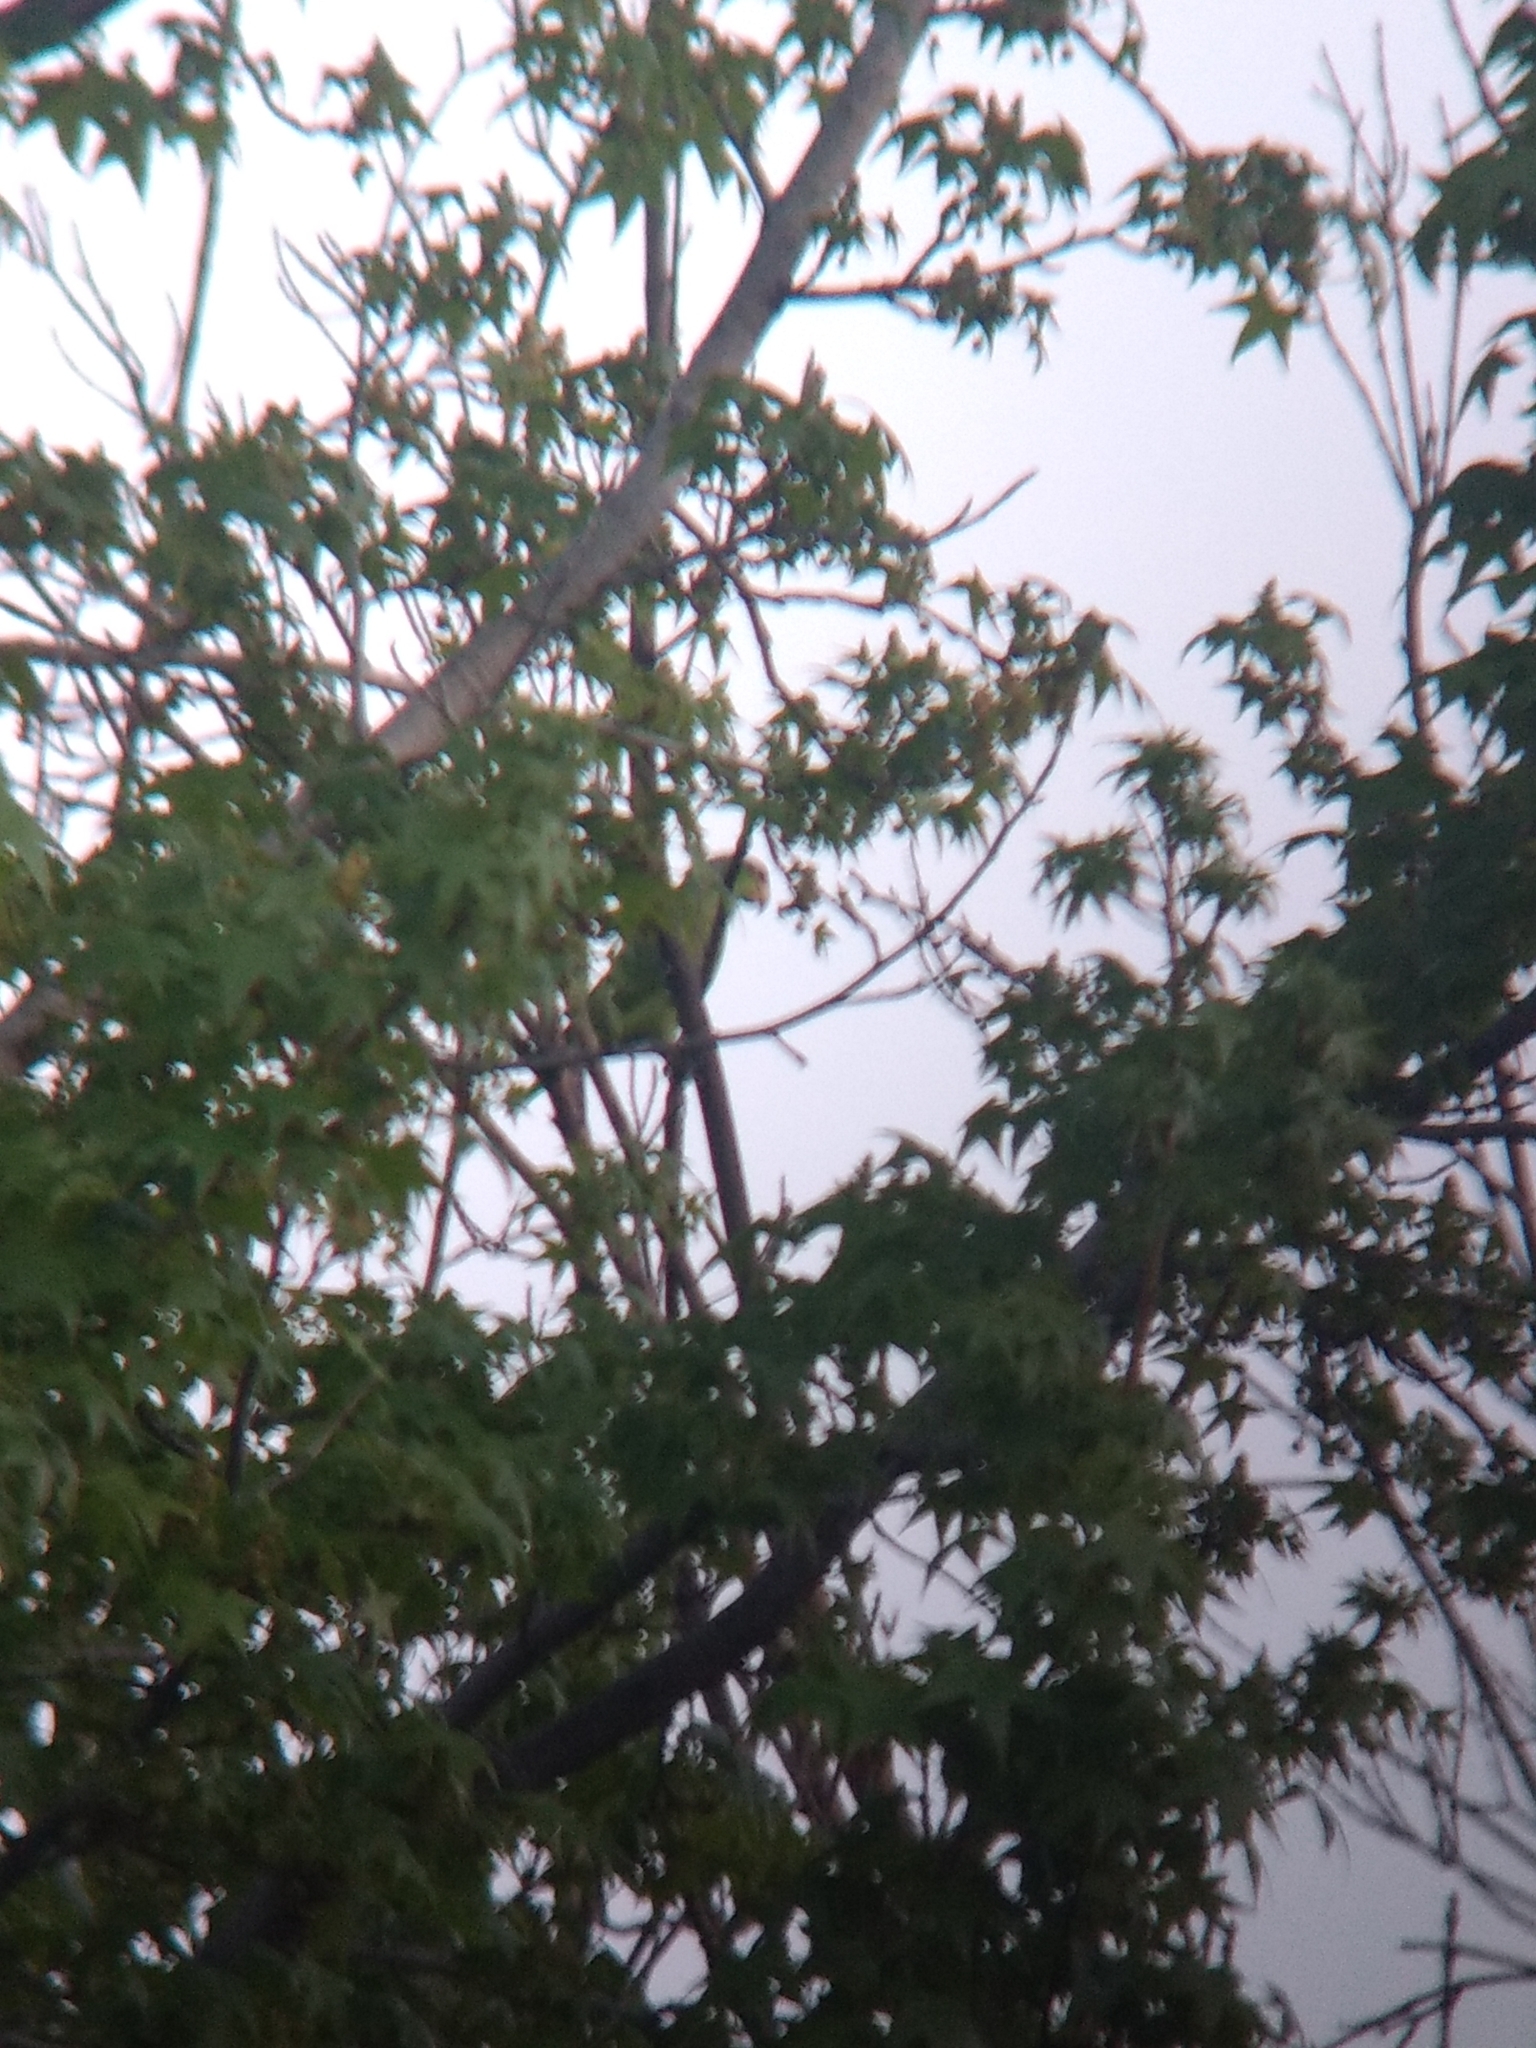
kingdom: Animalia
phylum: Chordata
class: Aves
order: Psittaciformes
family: Psittacidae
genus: Amazona
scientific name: Amazona
